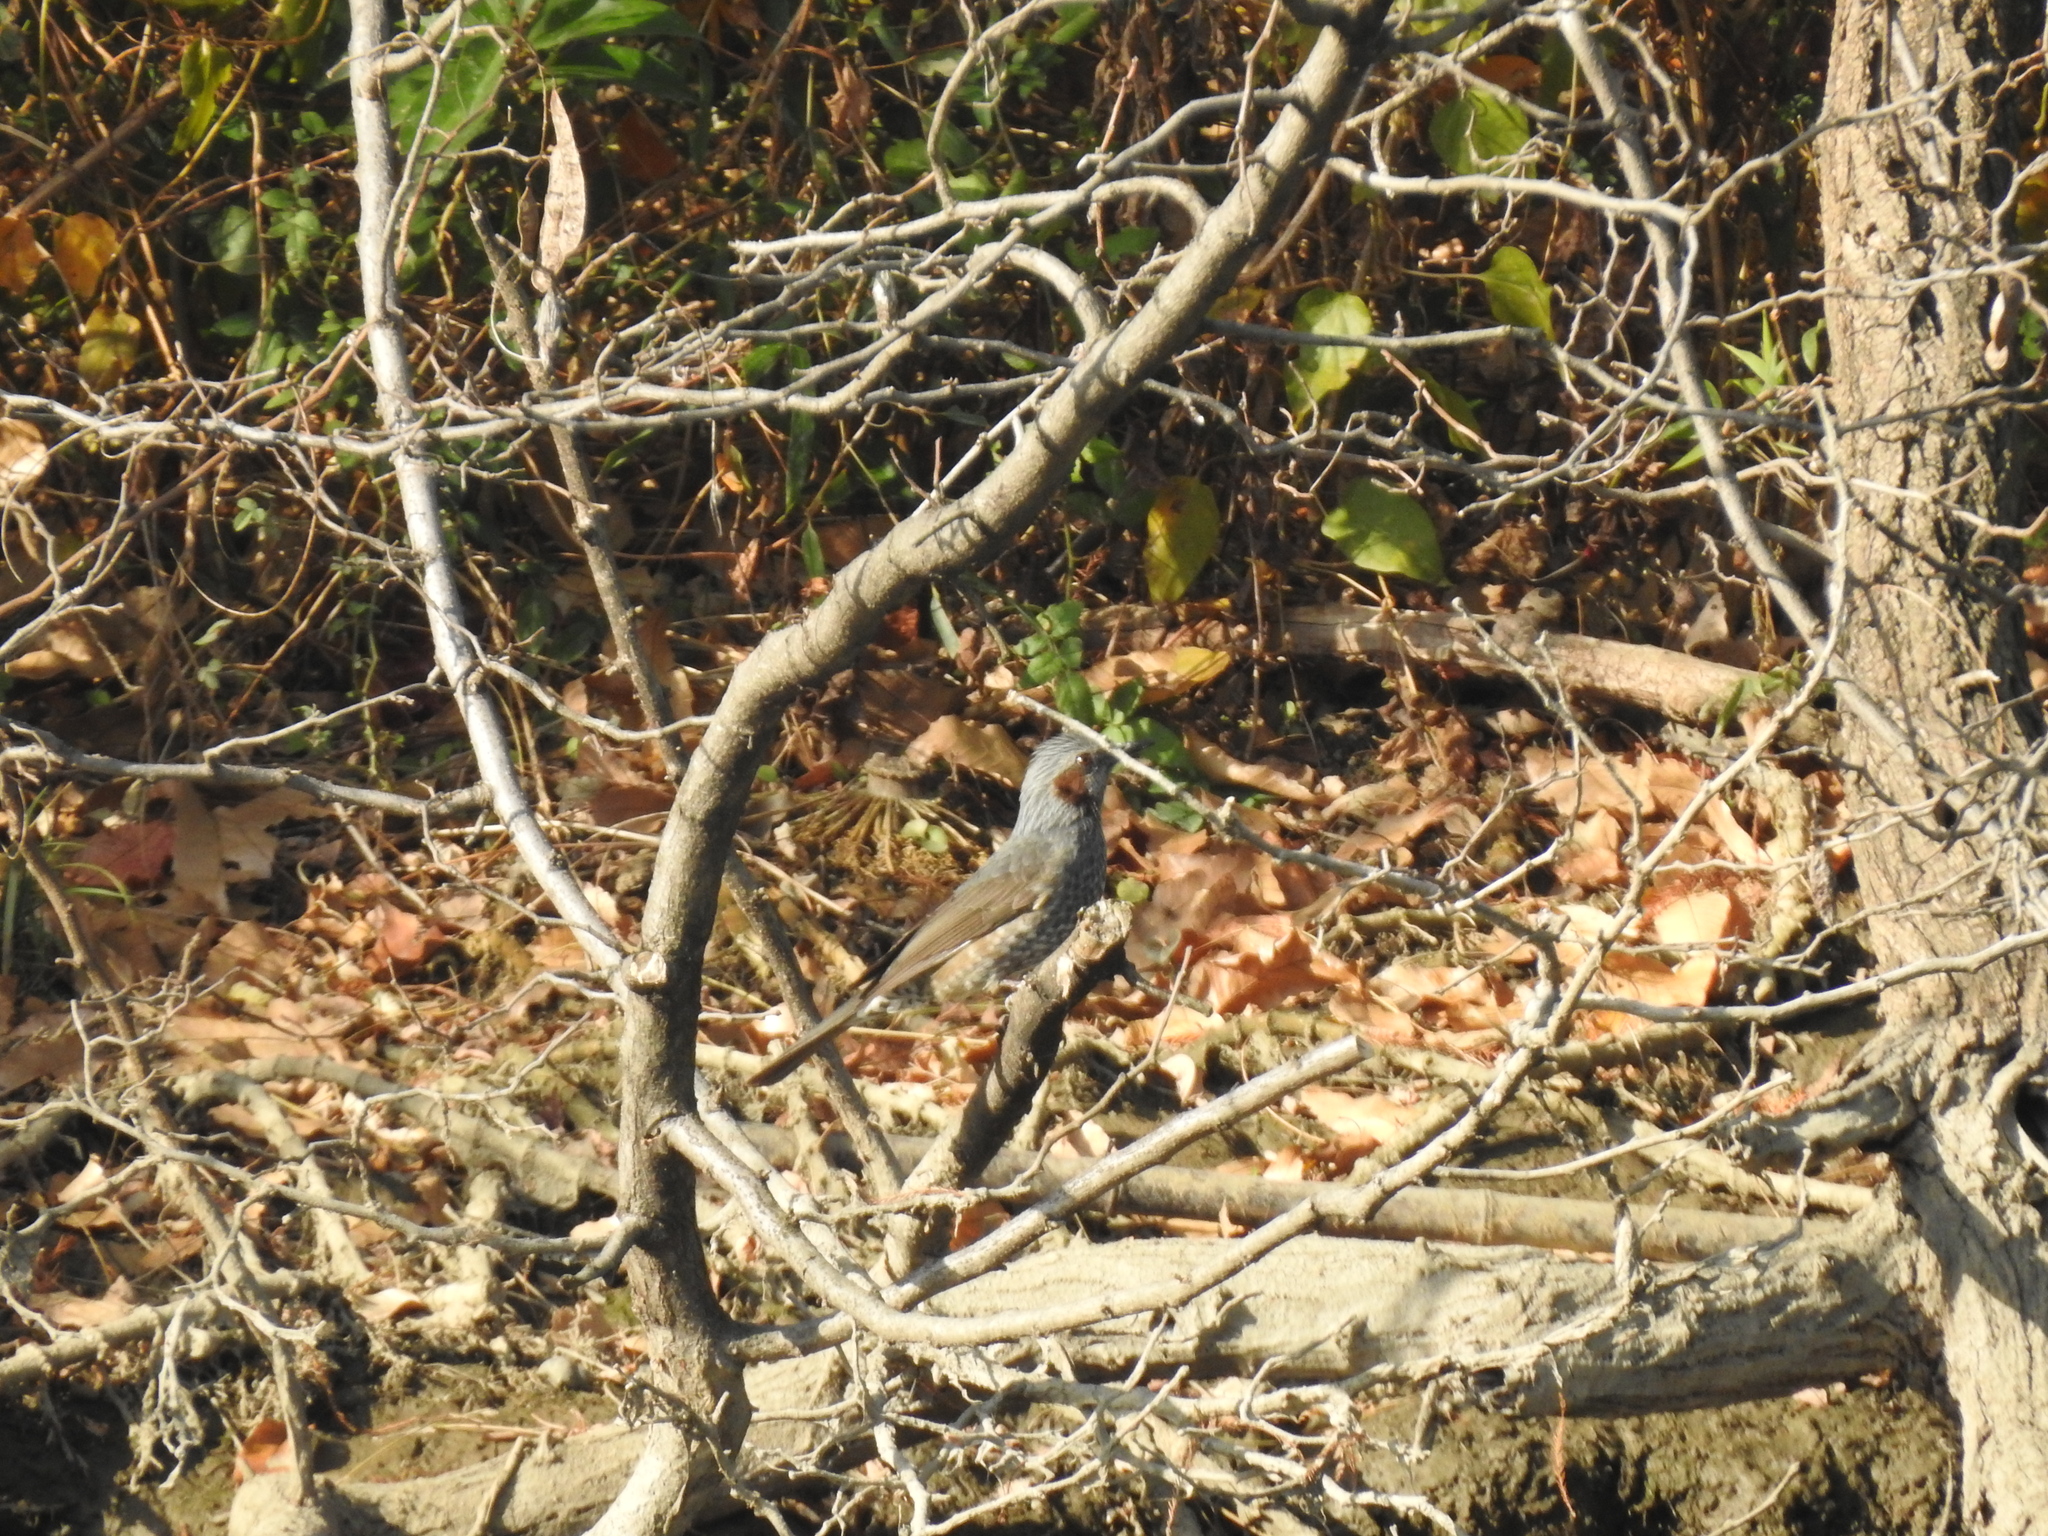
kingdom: Animalia
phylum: Chordata
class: Aves
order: Passeriformes
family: Pycnonotidae
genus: Hypsipetes
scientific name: Hypsipetes amaurotis
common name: Brown-eared bulbul
